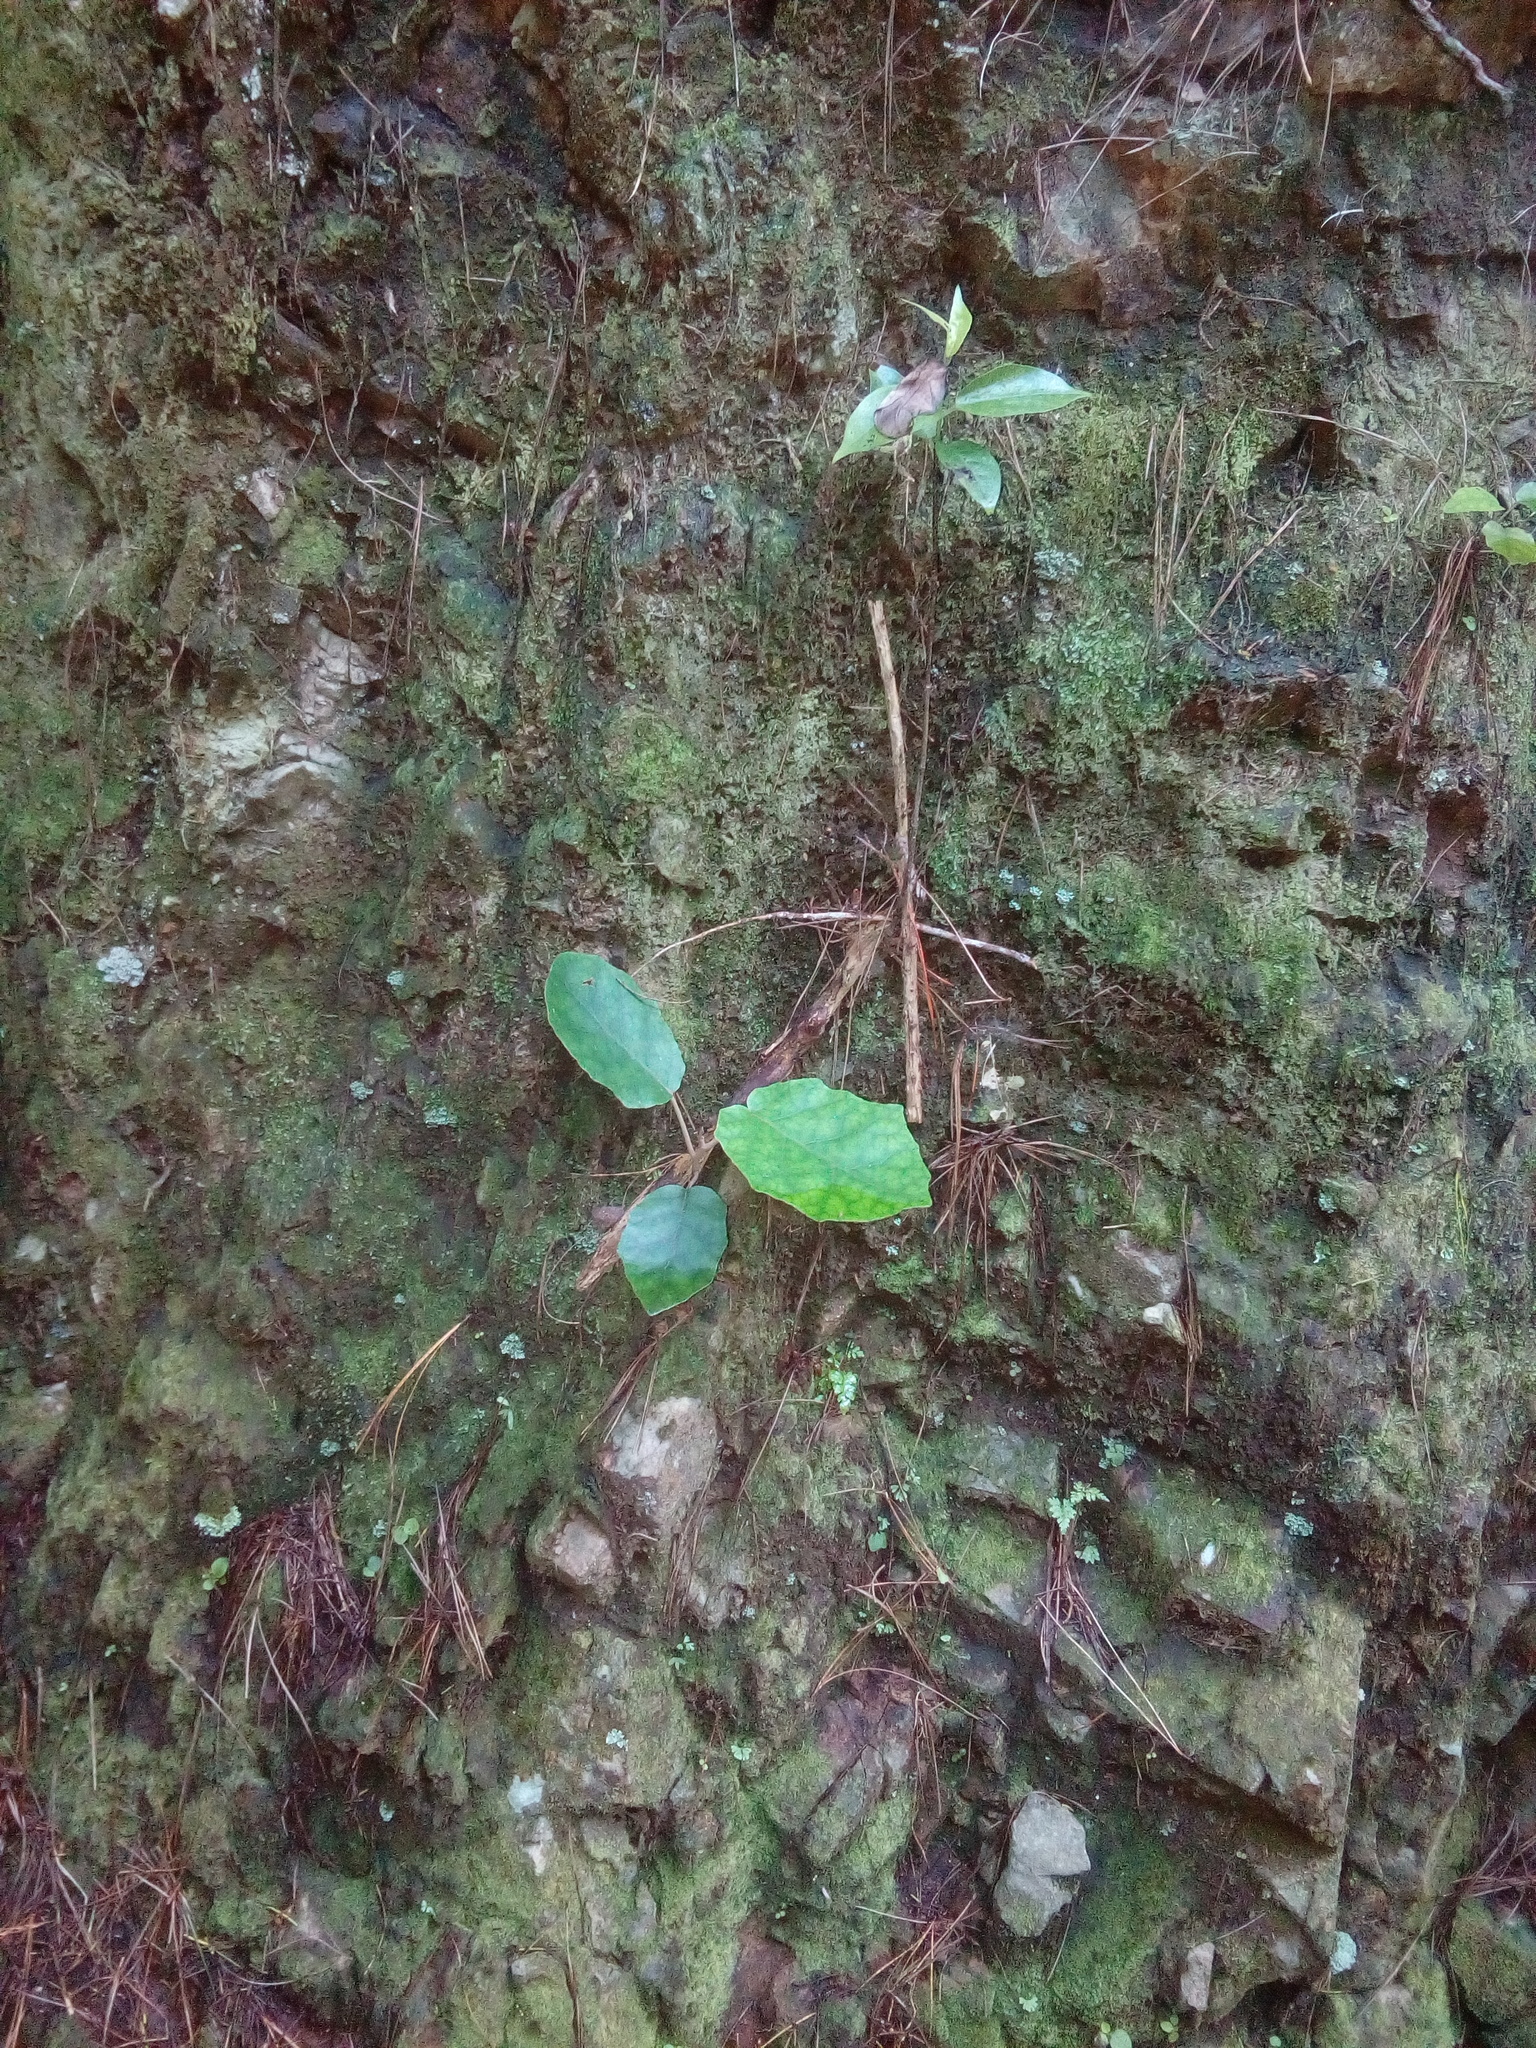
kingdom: Plantae
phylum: Tracheophyta
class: Magnoliopsida
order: Asterales
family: Asteraceae
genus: Brachyglottis
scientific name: Brachyglottis repanda
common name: Hedge ragwort
